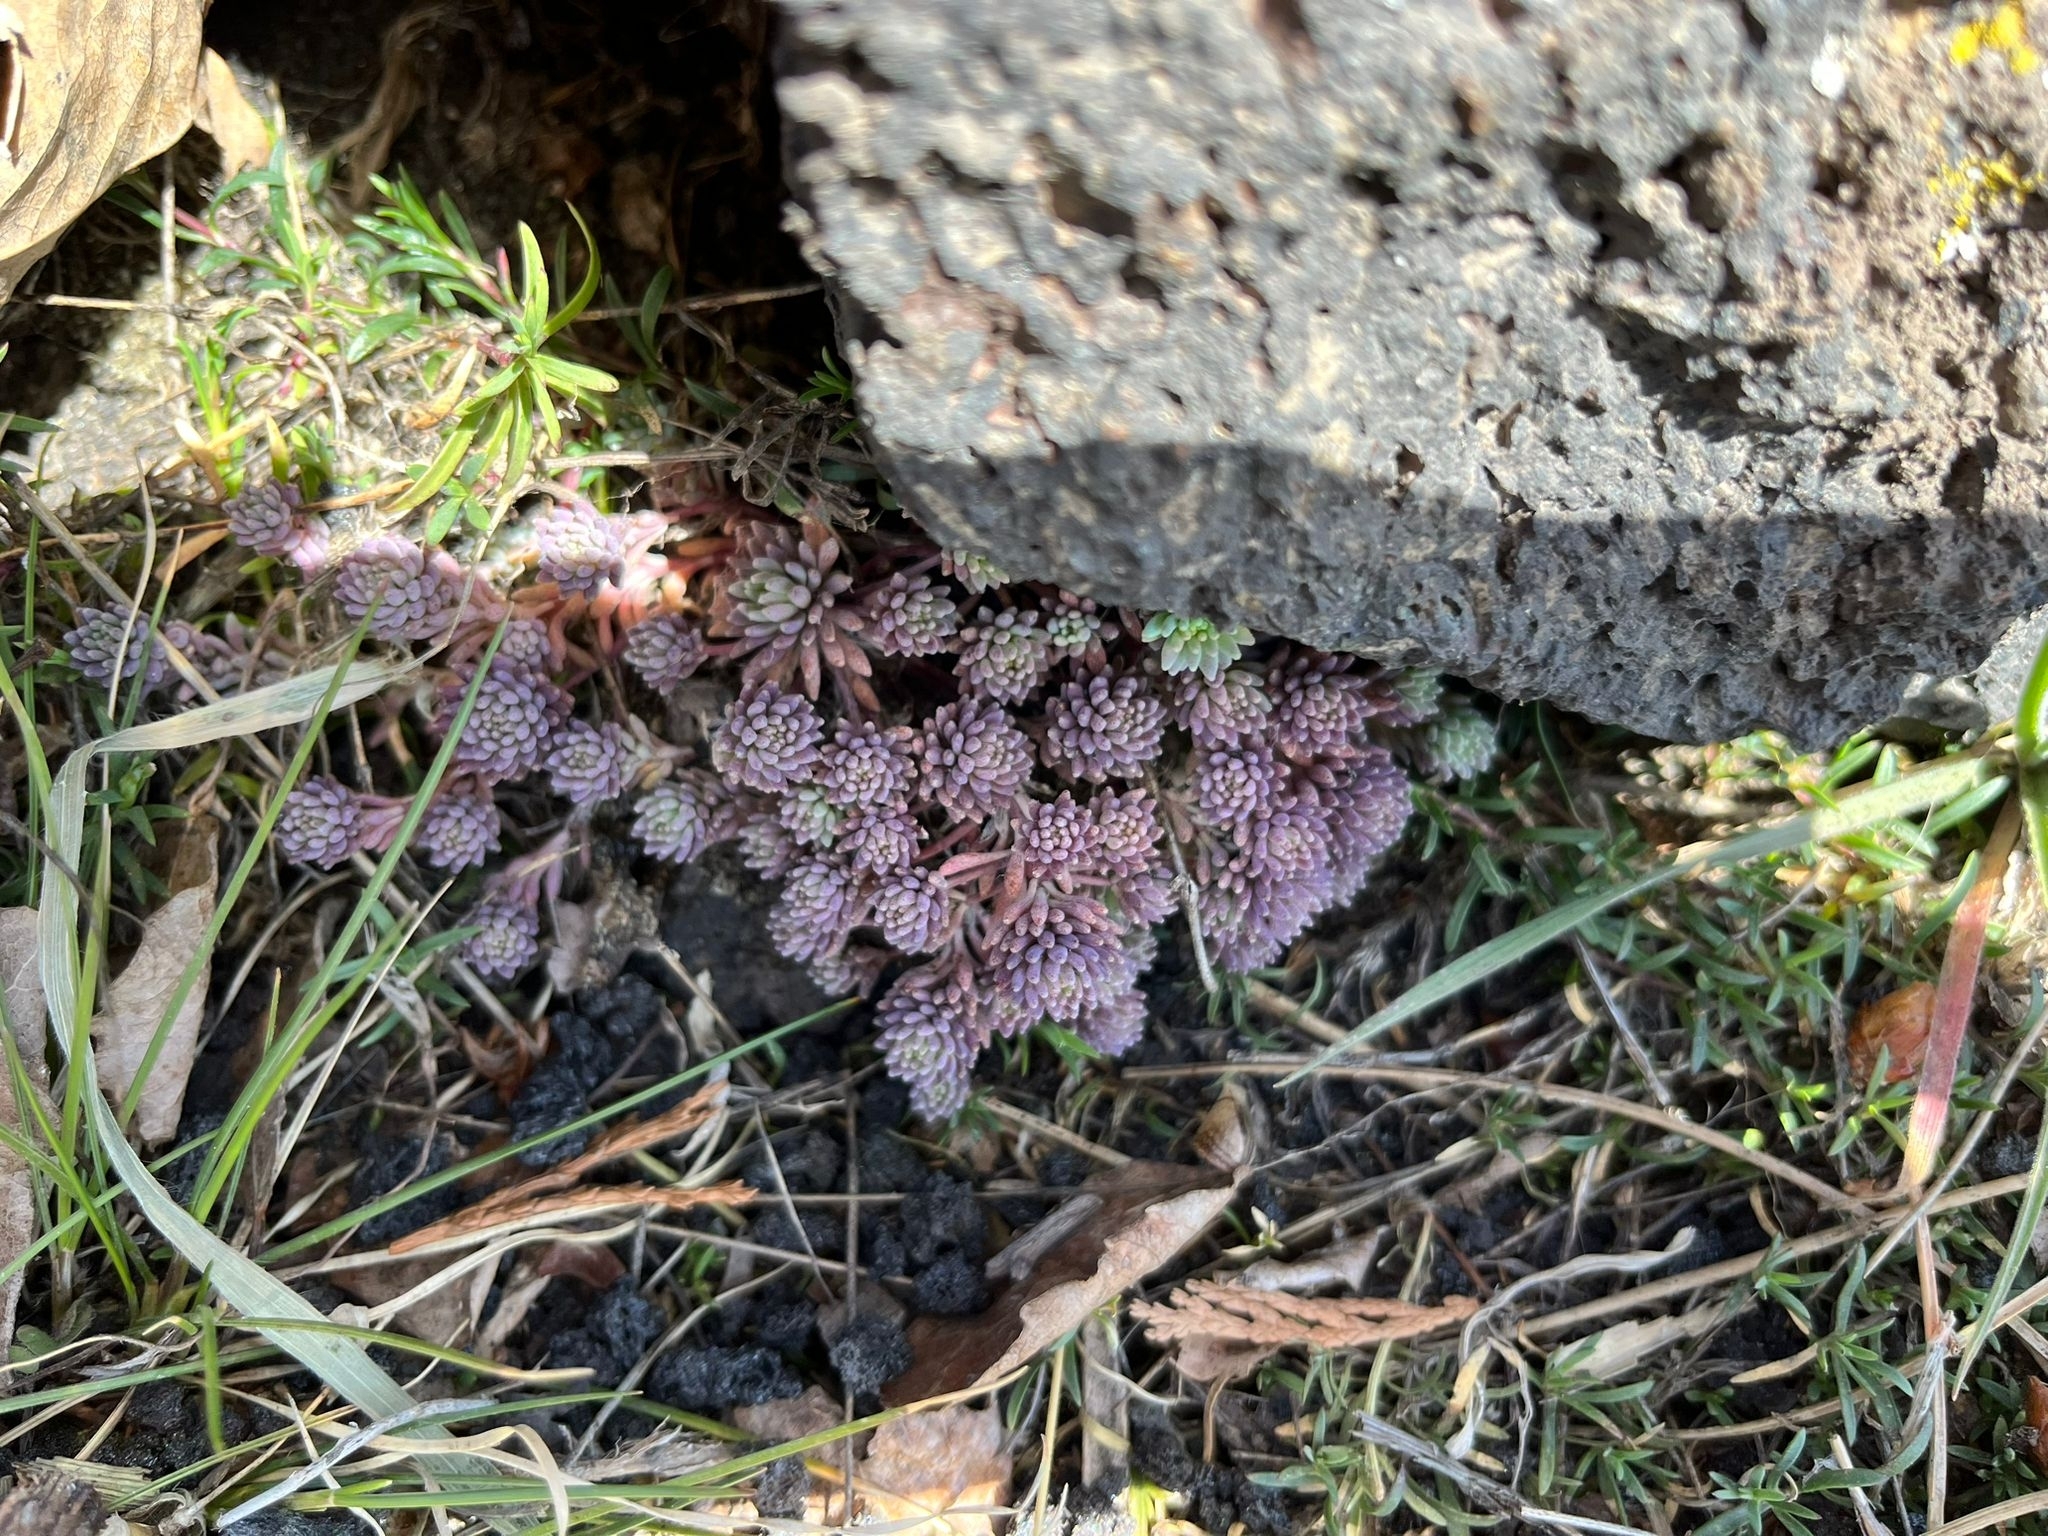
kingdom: Plantae
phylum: Tracheophyta
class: Magnoliopsida
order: Saxifragales
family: Crassulaceae
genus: Sedum
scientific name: Sedum hispanicum
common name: Spanish stonecrop
